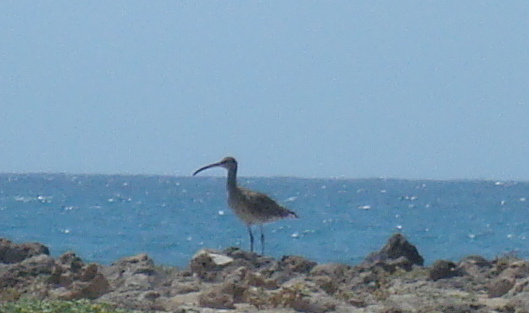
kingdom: Animalia
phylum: Chordata
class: Aves
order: Charadriiformes
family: Scolopacidae
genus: Numenius
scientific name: Numenius phaeopus
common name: Whimbrel
